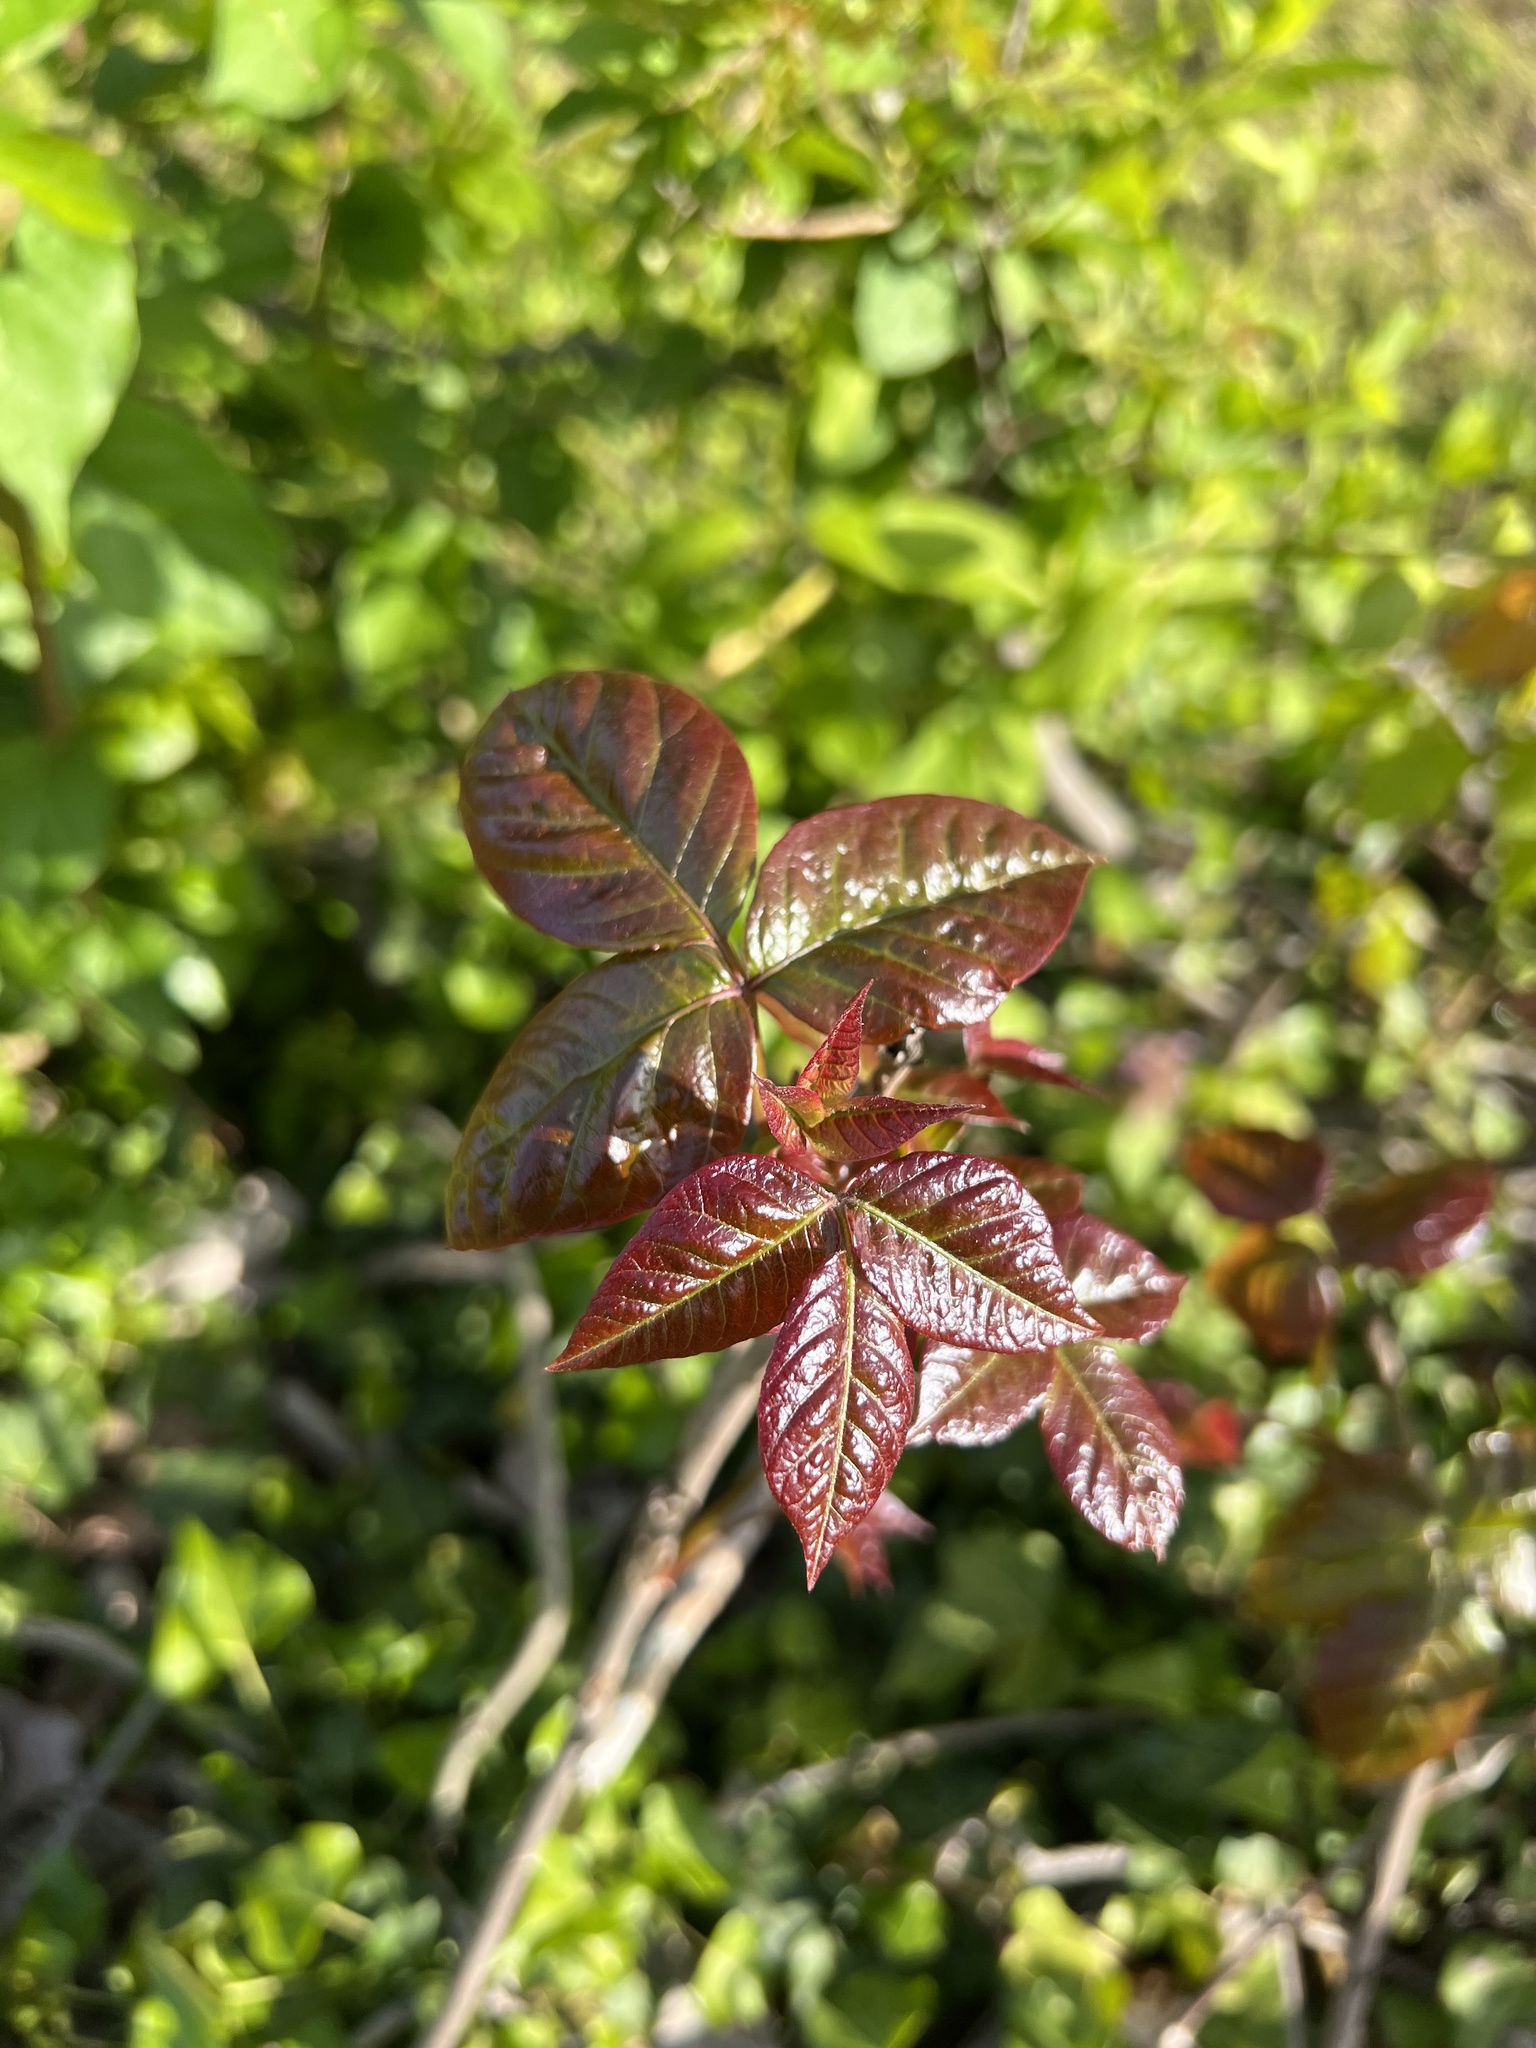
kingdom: Plantae
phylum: Tracheophyta
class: Magnoliopsida
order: Sapindales
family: Anacardiaceae
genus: Toxicodendron
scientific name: Toxicodendron radicans
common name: Poison ivy
